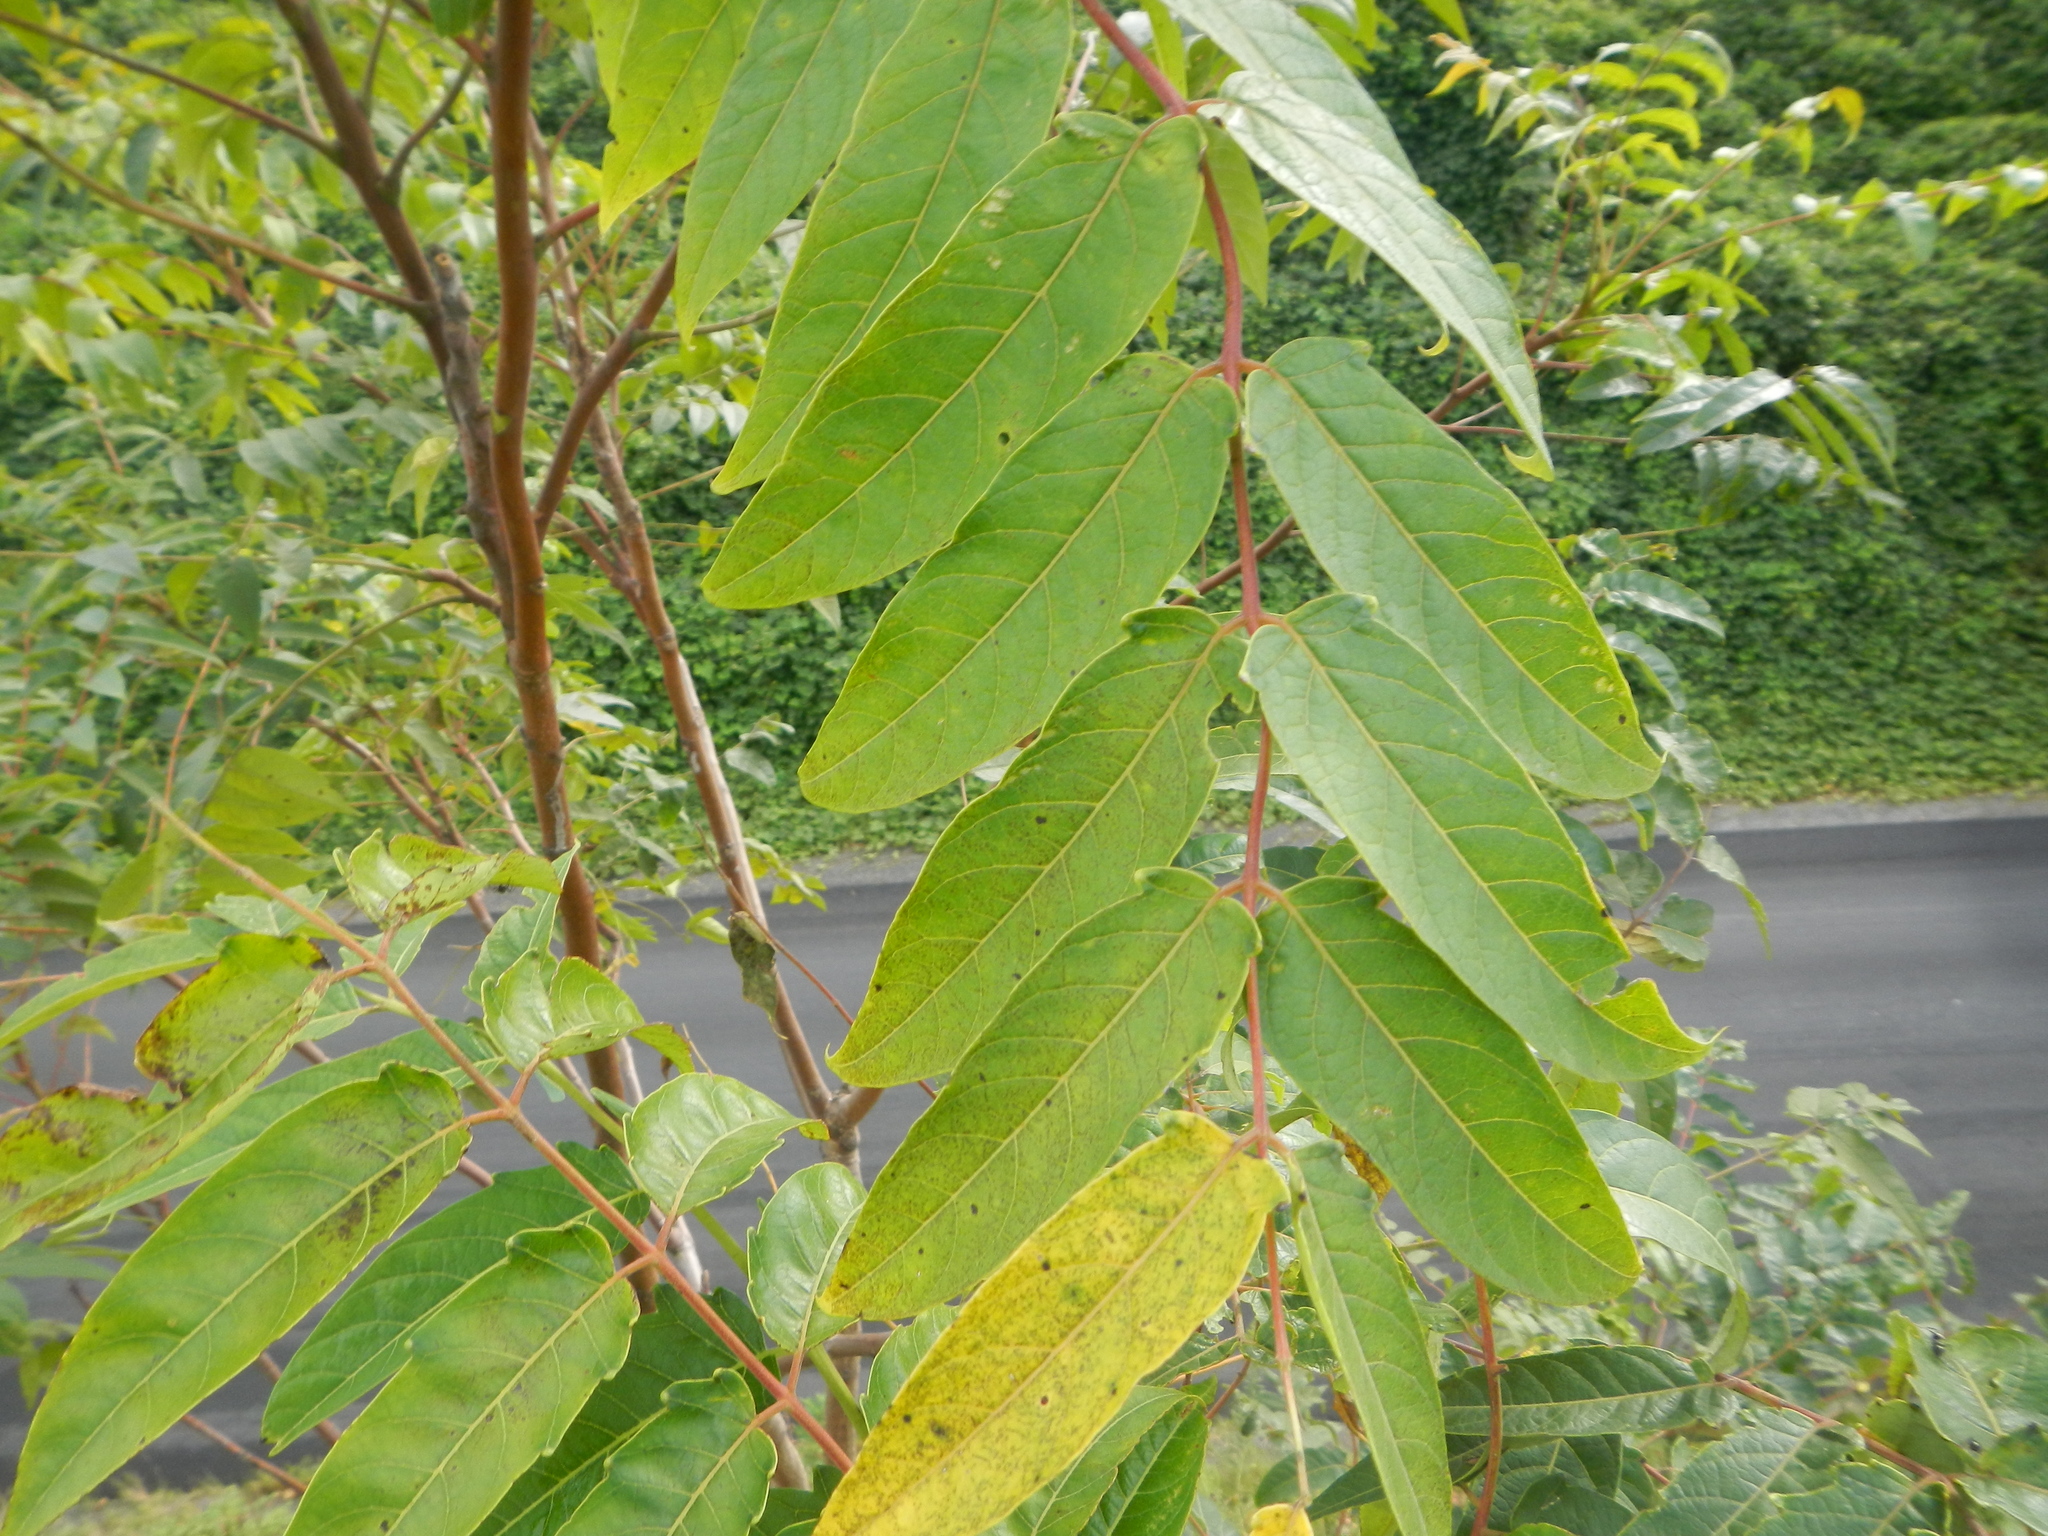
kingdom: Plantae
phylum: Tracheophyta
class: Magnoliopsida
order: Sapindales
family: Simaroubaceae
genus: Ailanthus
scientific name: Ailanthus altissima
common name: Tree-of-heaven
